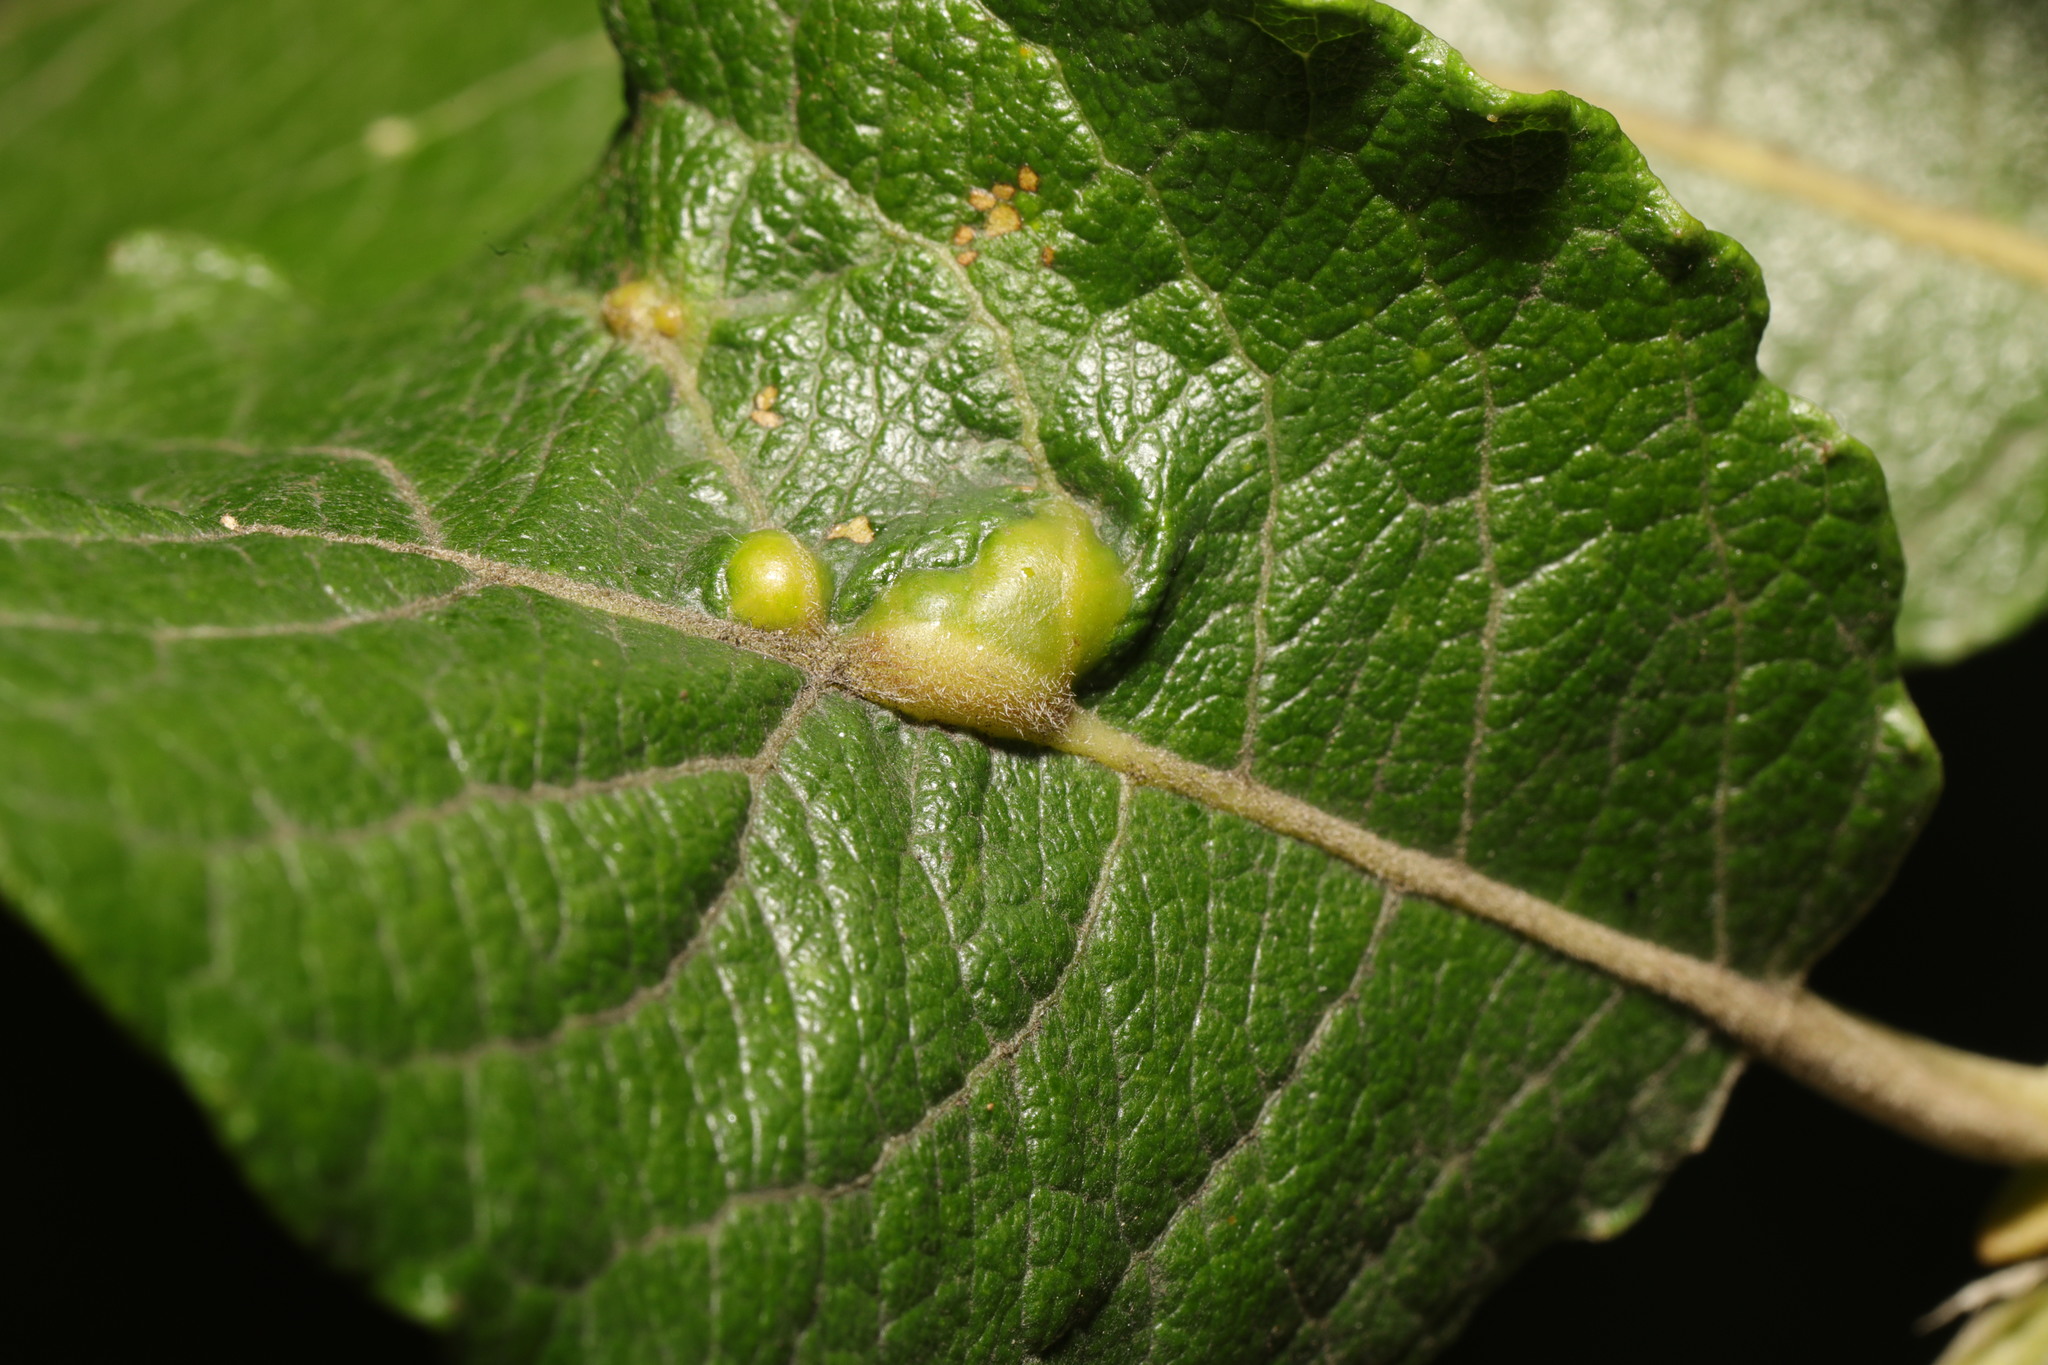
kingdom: Animalia
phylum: Arthropoda
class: Insecta
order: Diptera
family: Cecidomyiidae
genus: Iteomyia
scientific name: Iteomyia major
